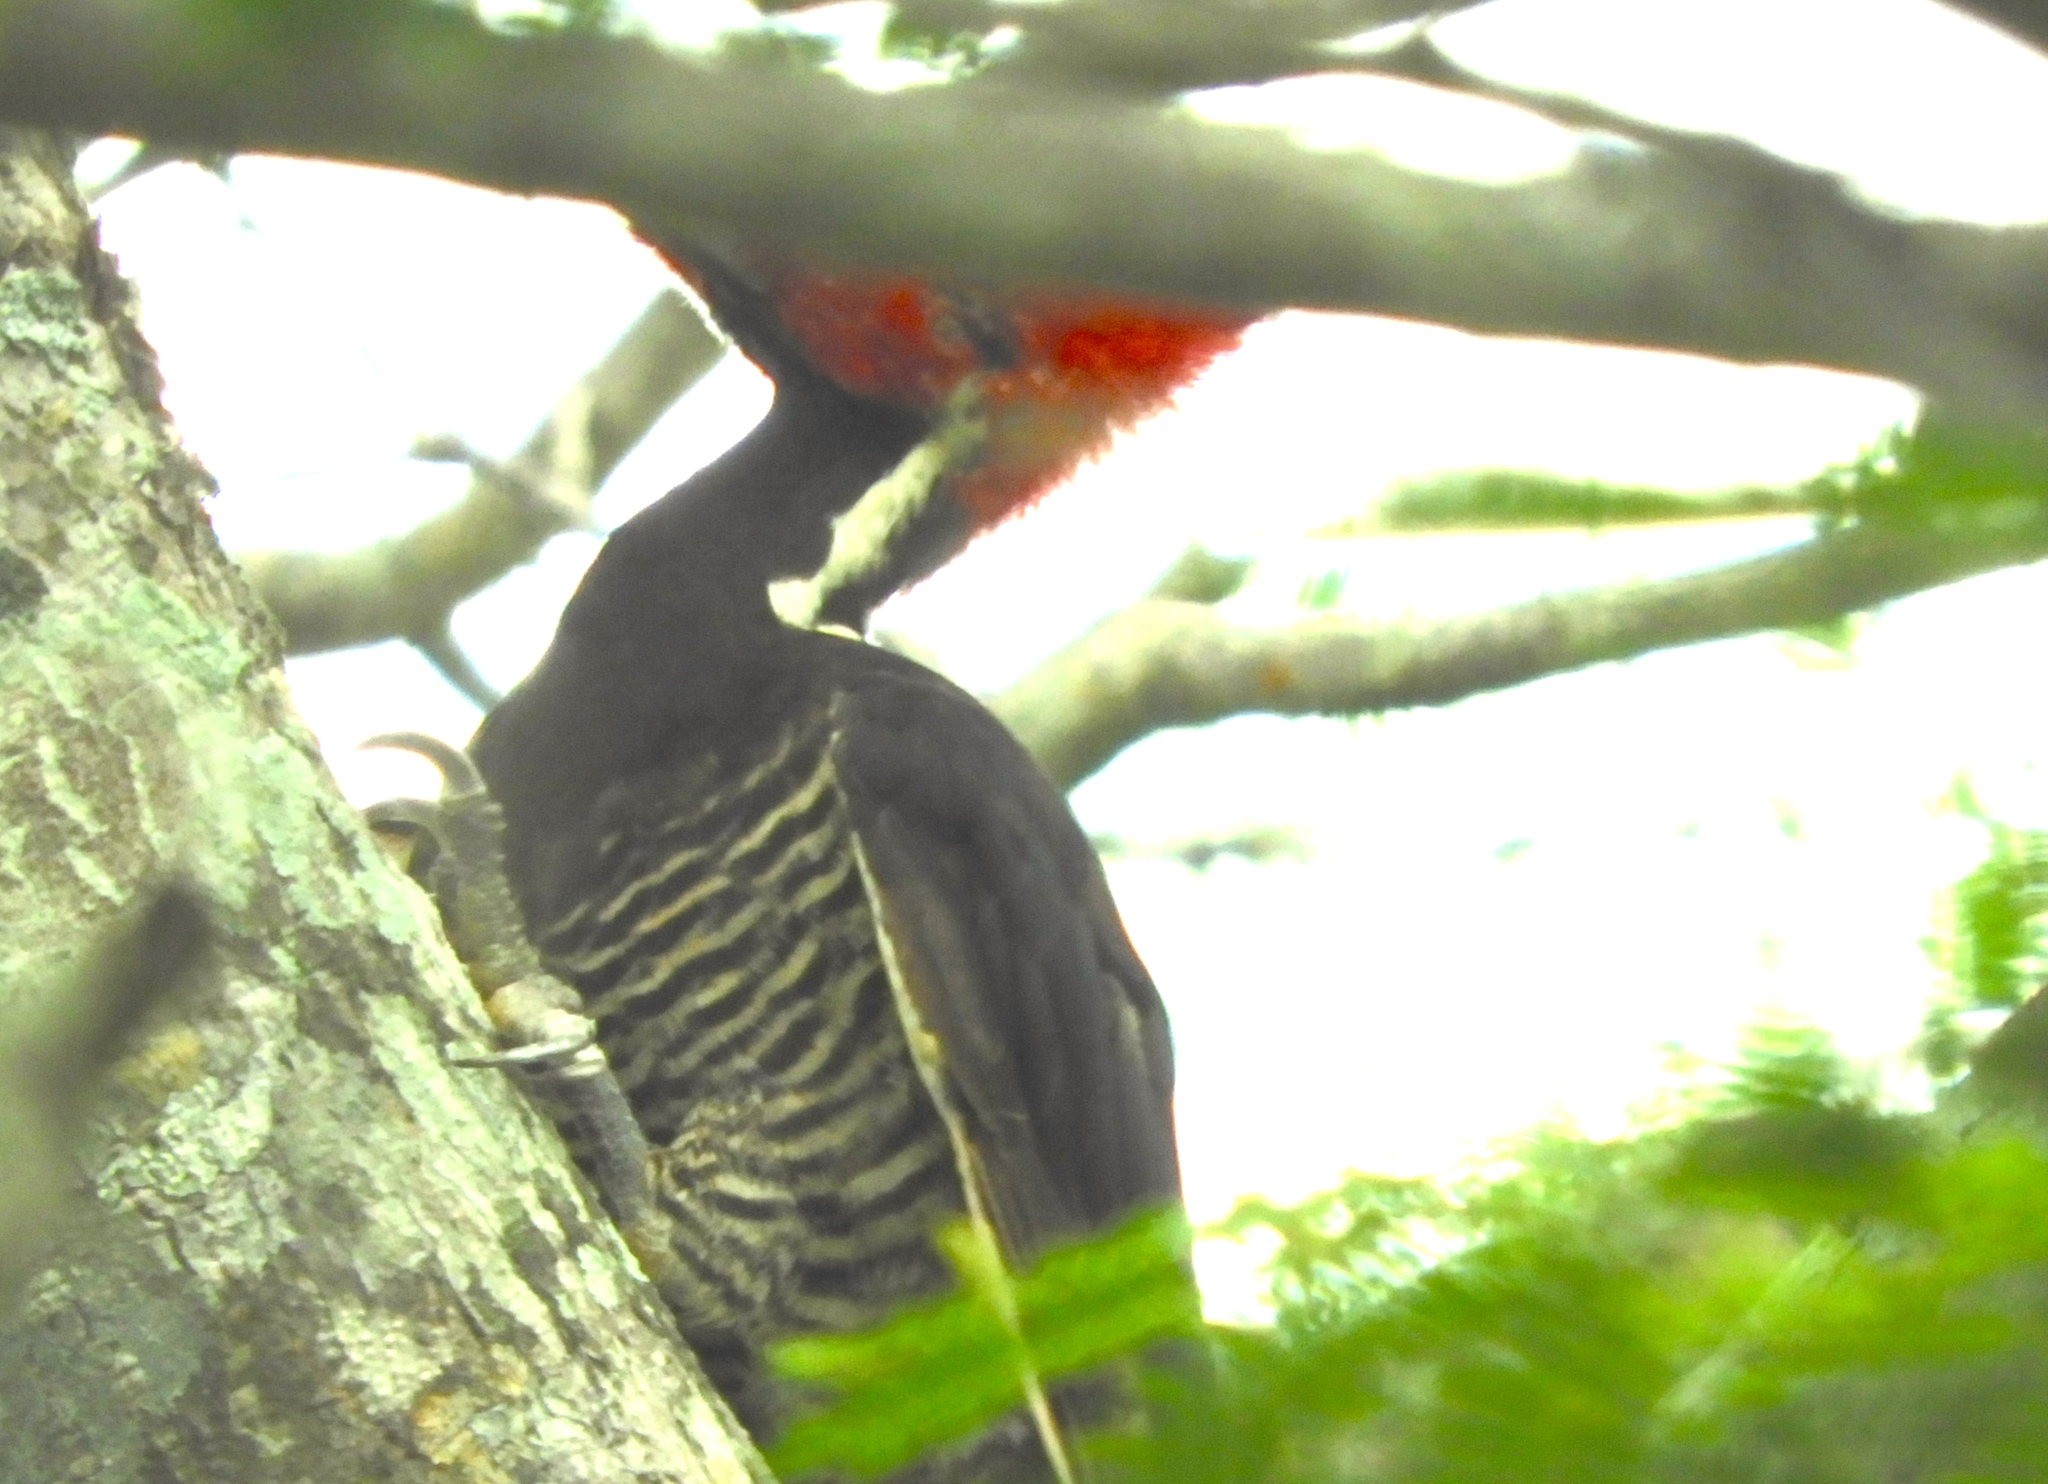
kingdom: Animalia
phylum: Chordata
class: Aves
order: Piciformes
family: Picidae
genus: Campephilus
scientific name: Campephilus guatemalensis
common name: Pale-billed woodpecker
